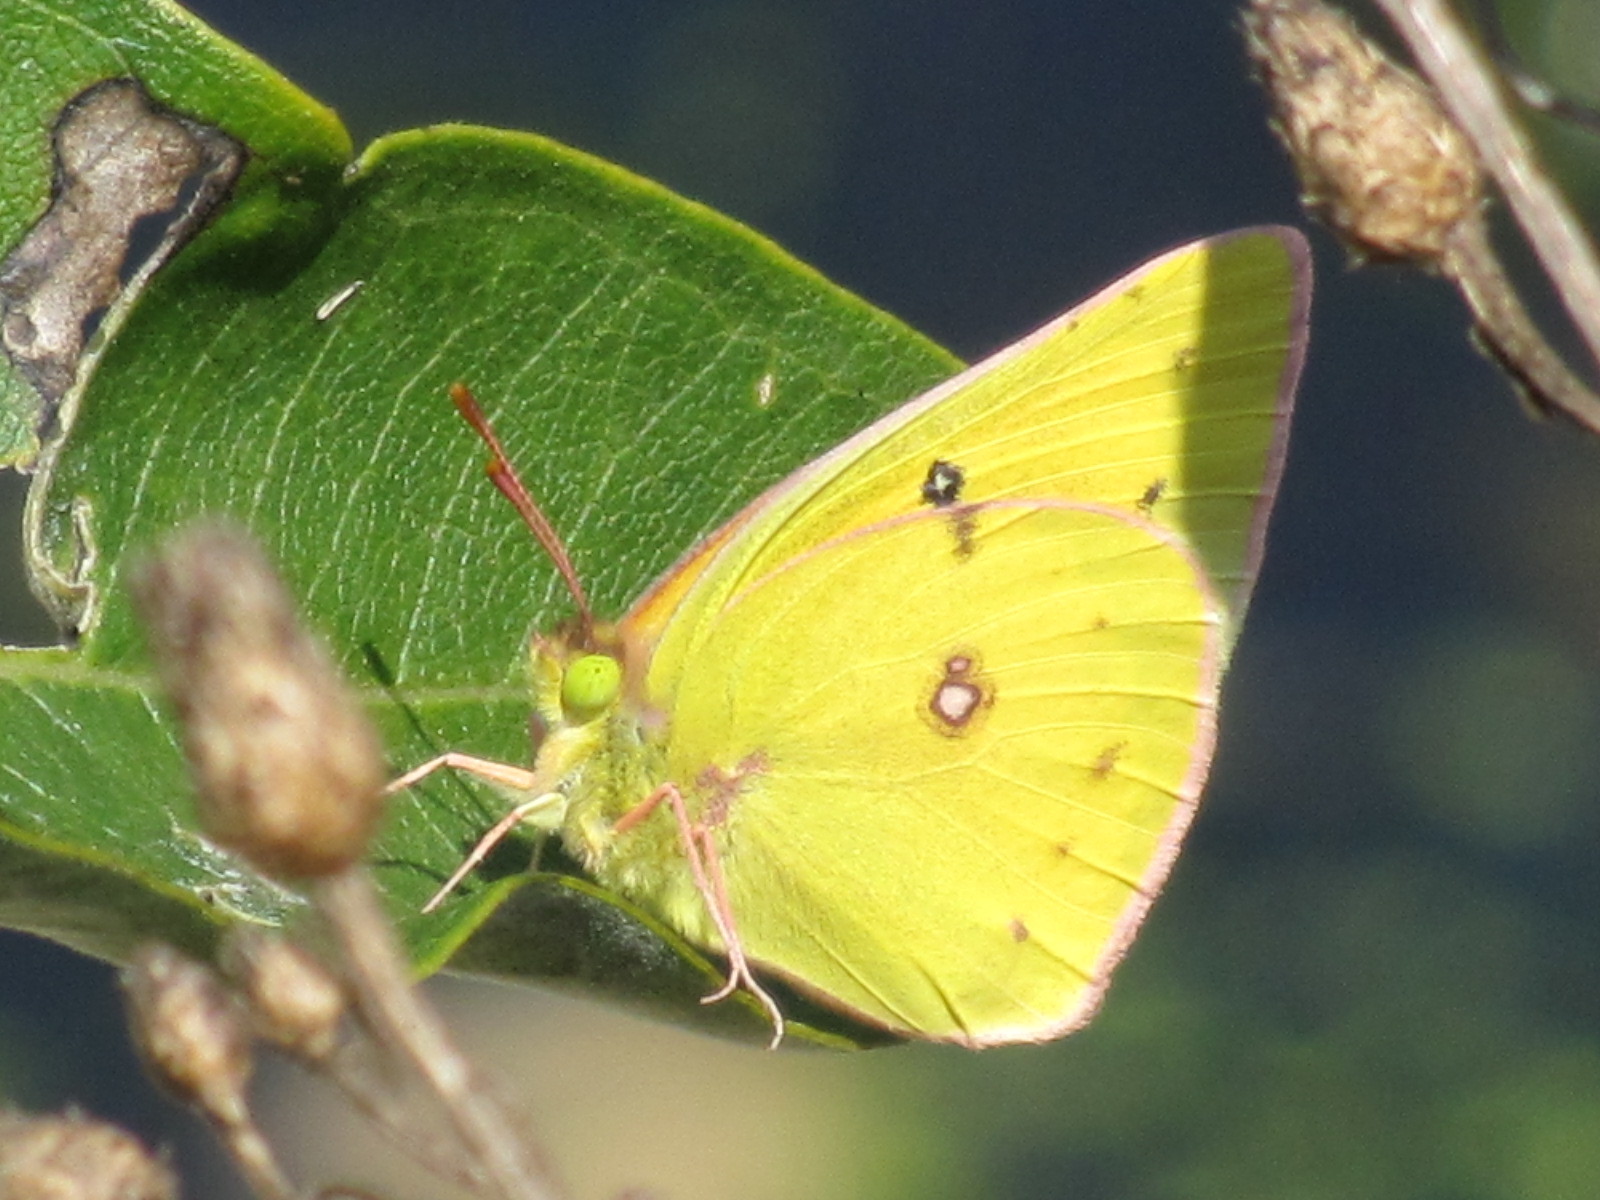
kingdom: Animalia
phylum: Arthropoda
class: Insecta
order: Lepidoptera
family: Pieridae
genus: Colias
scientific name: Colias eurytheme
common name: Alfalfa butterfly
